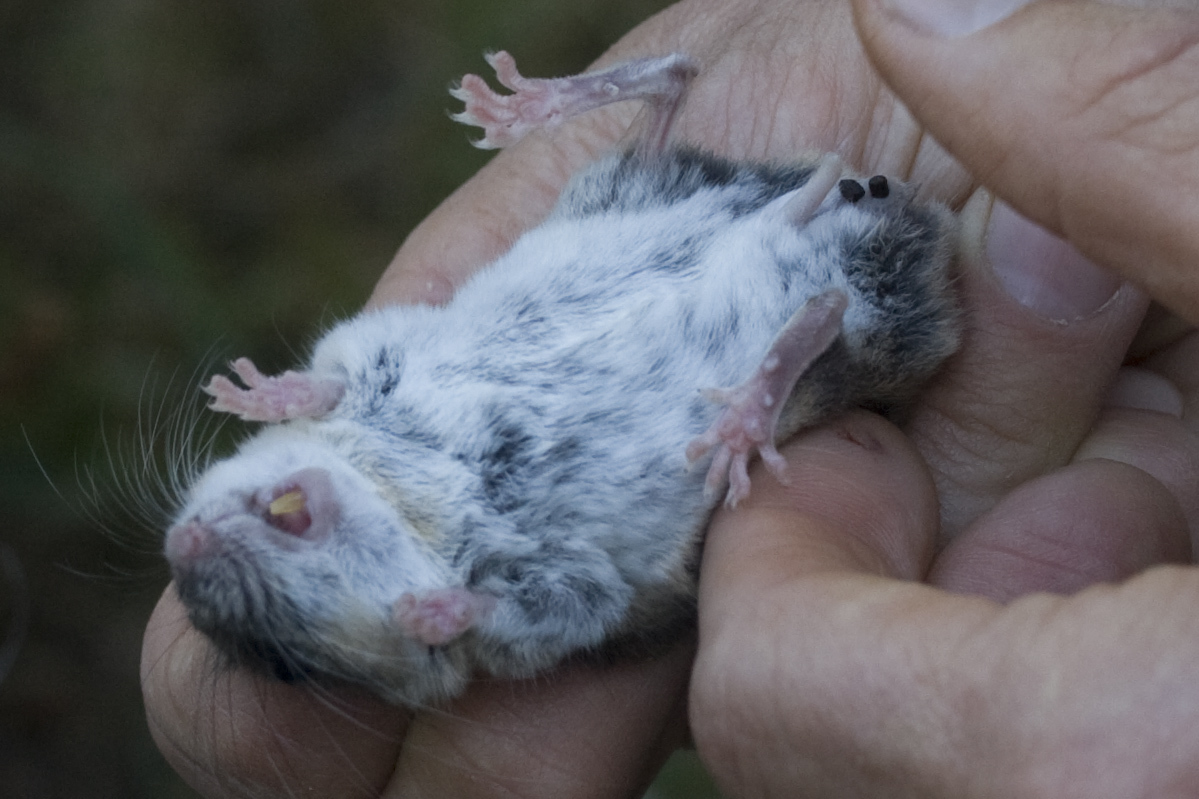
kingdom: Animalia
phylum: Chordata
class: Mammalia
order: Rodentia
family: Cricetidae
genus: Peromyscus
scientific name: Peromyscus truei
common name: Pinyon mouse
